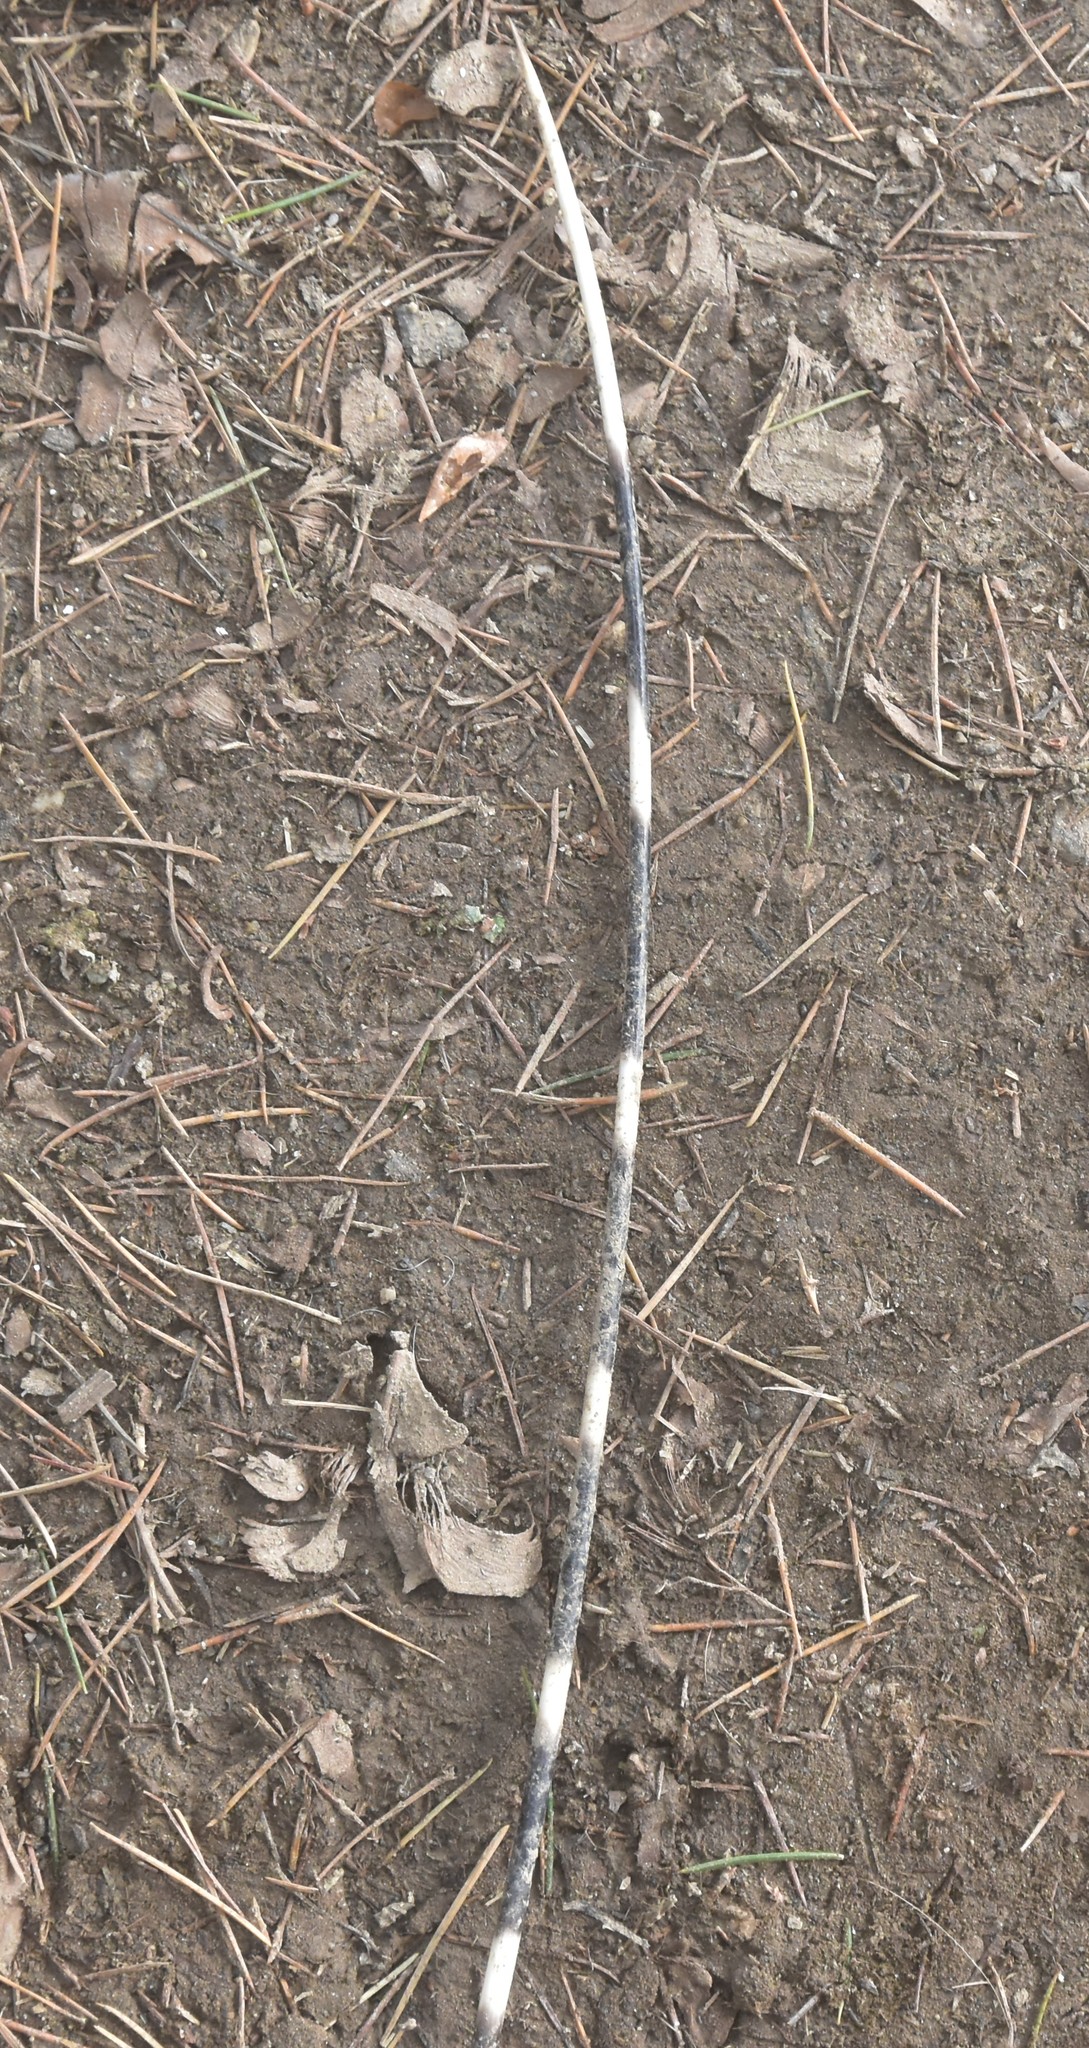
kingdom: Animalia
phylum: Chordata
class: Mammalia
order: Rodentia
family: Hystricidae
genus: Hystrix
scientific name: Hystrix indica
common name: Indian crested porcupine
